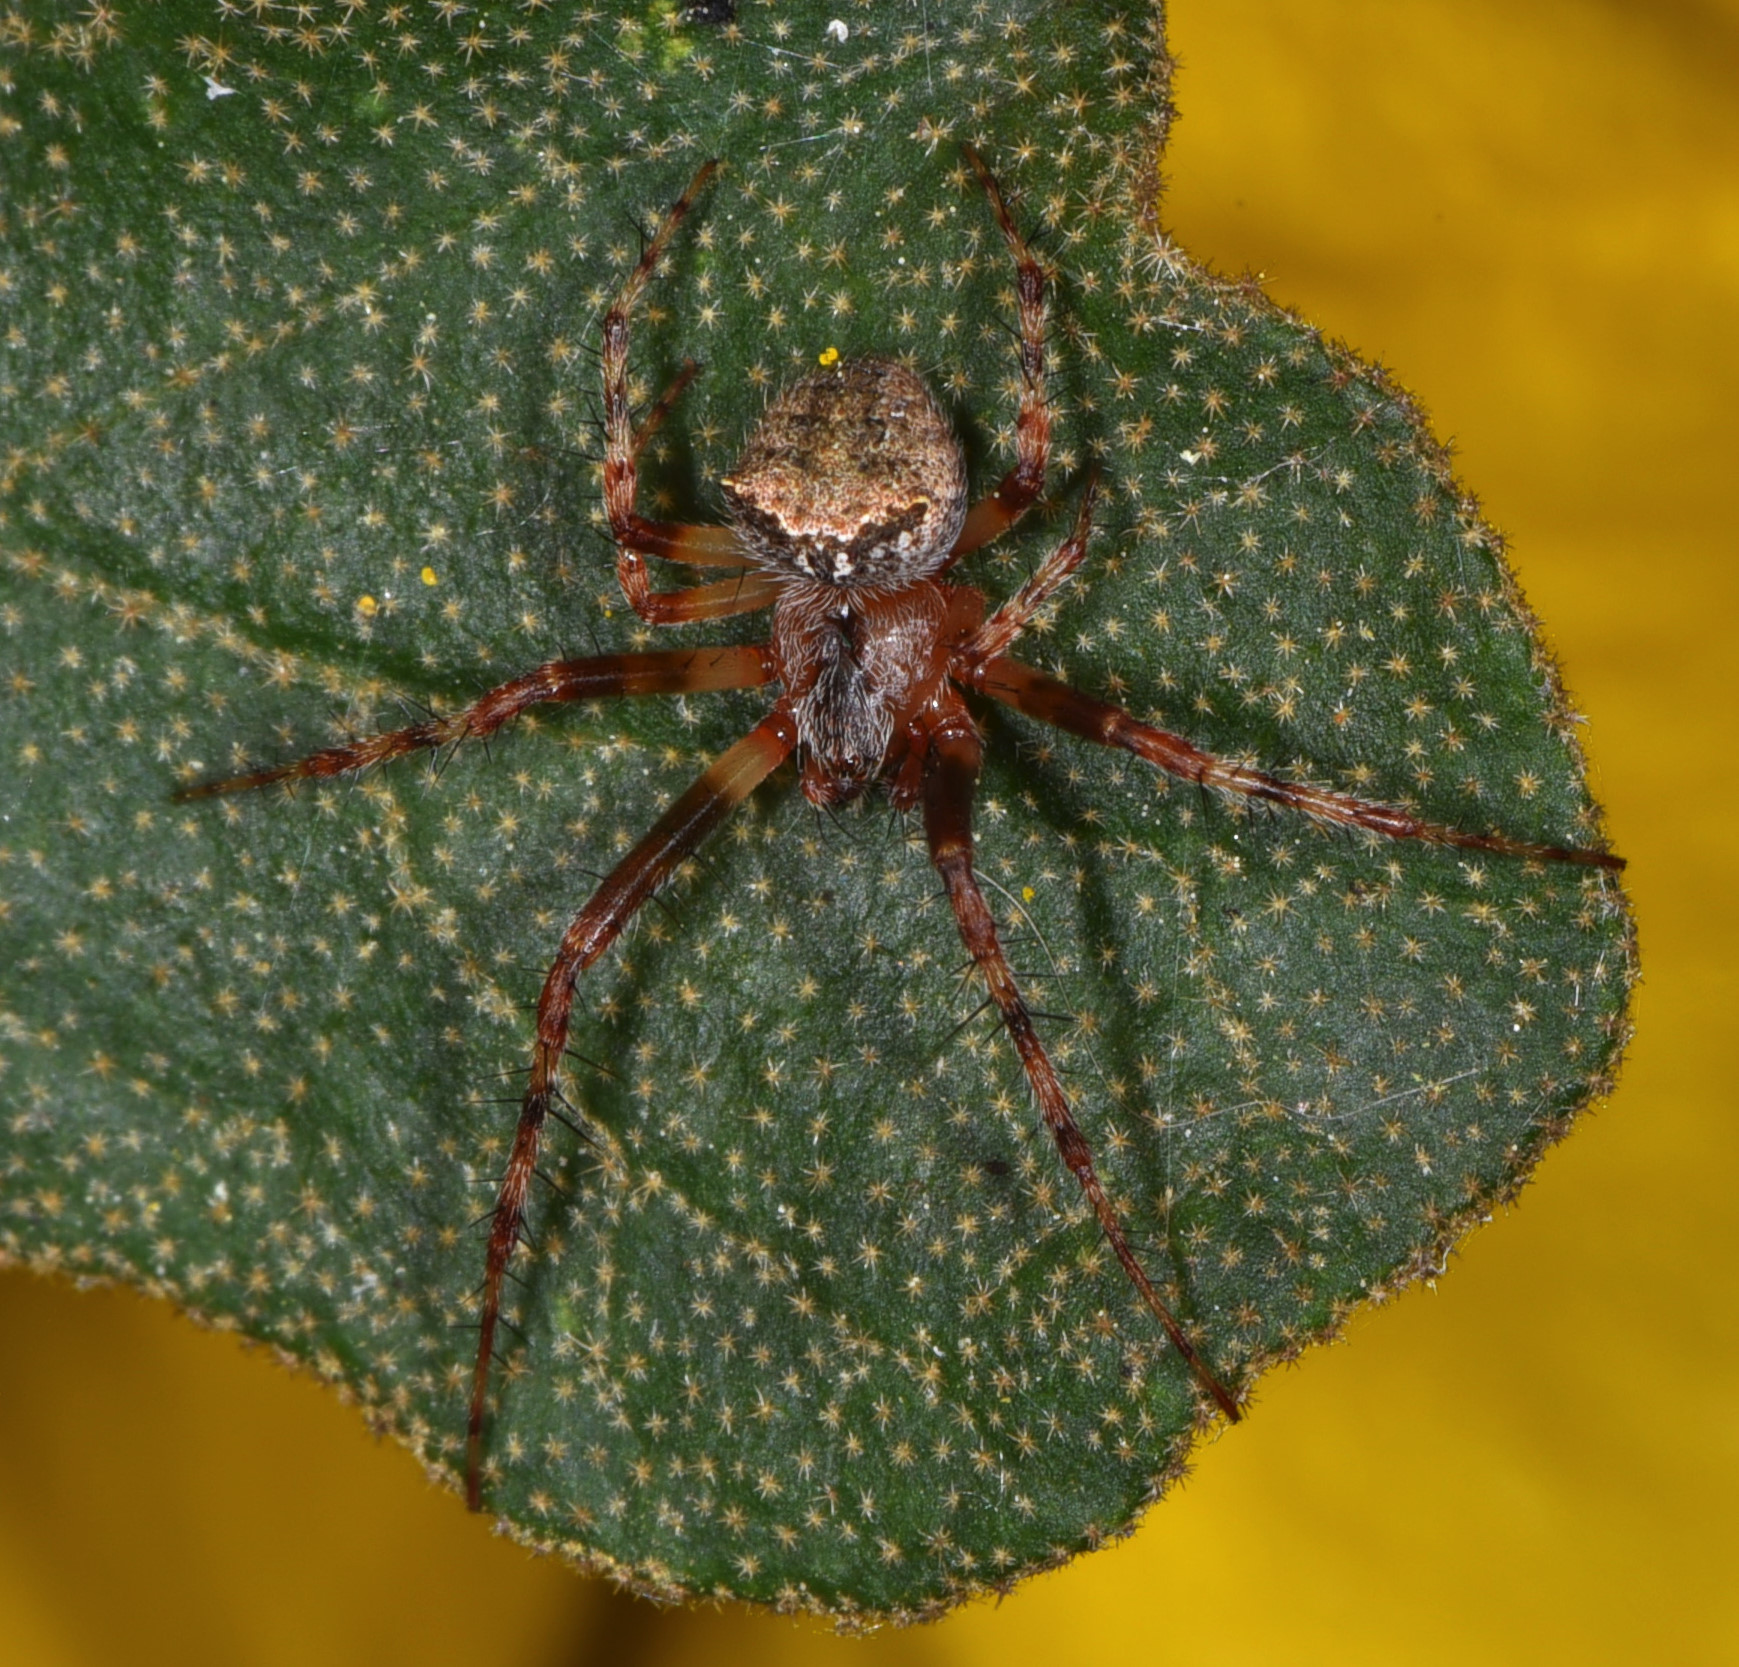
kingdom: Animalia
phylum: Arthropoda
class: Arachnida
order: Araneae
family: Araneidae
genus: Araneus
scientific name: Araneus bispinosus
